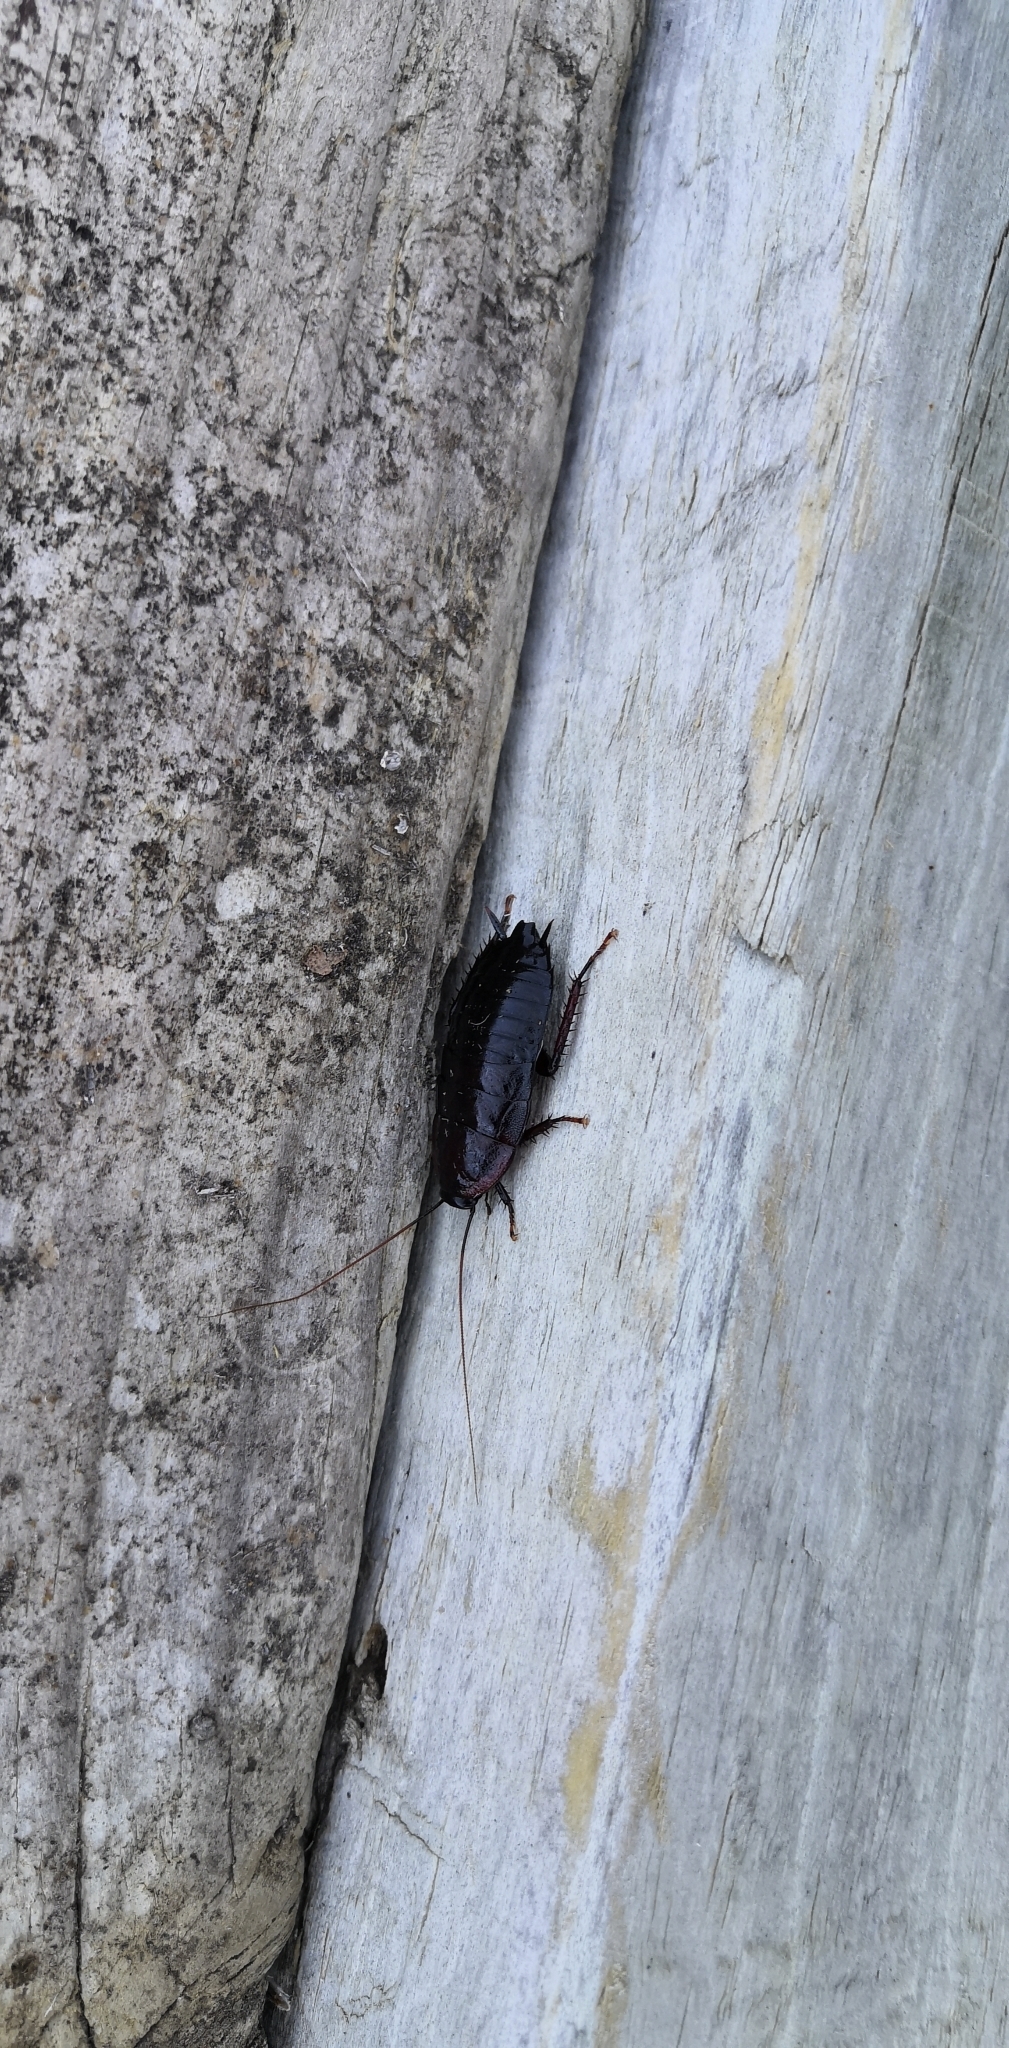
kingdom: Animalia
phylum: Arthropoda
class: Insecta
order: Blattodea
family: Blattidae
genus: Maoriblatta
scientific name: Maoriblatta novaeseelandiae
